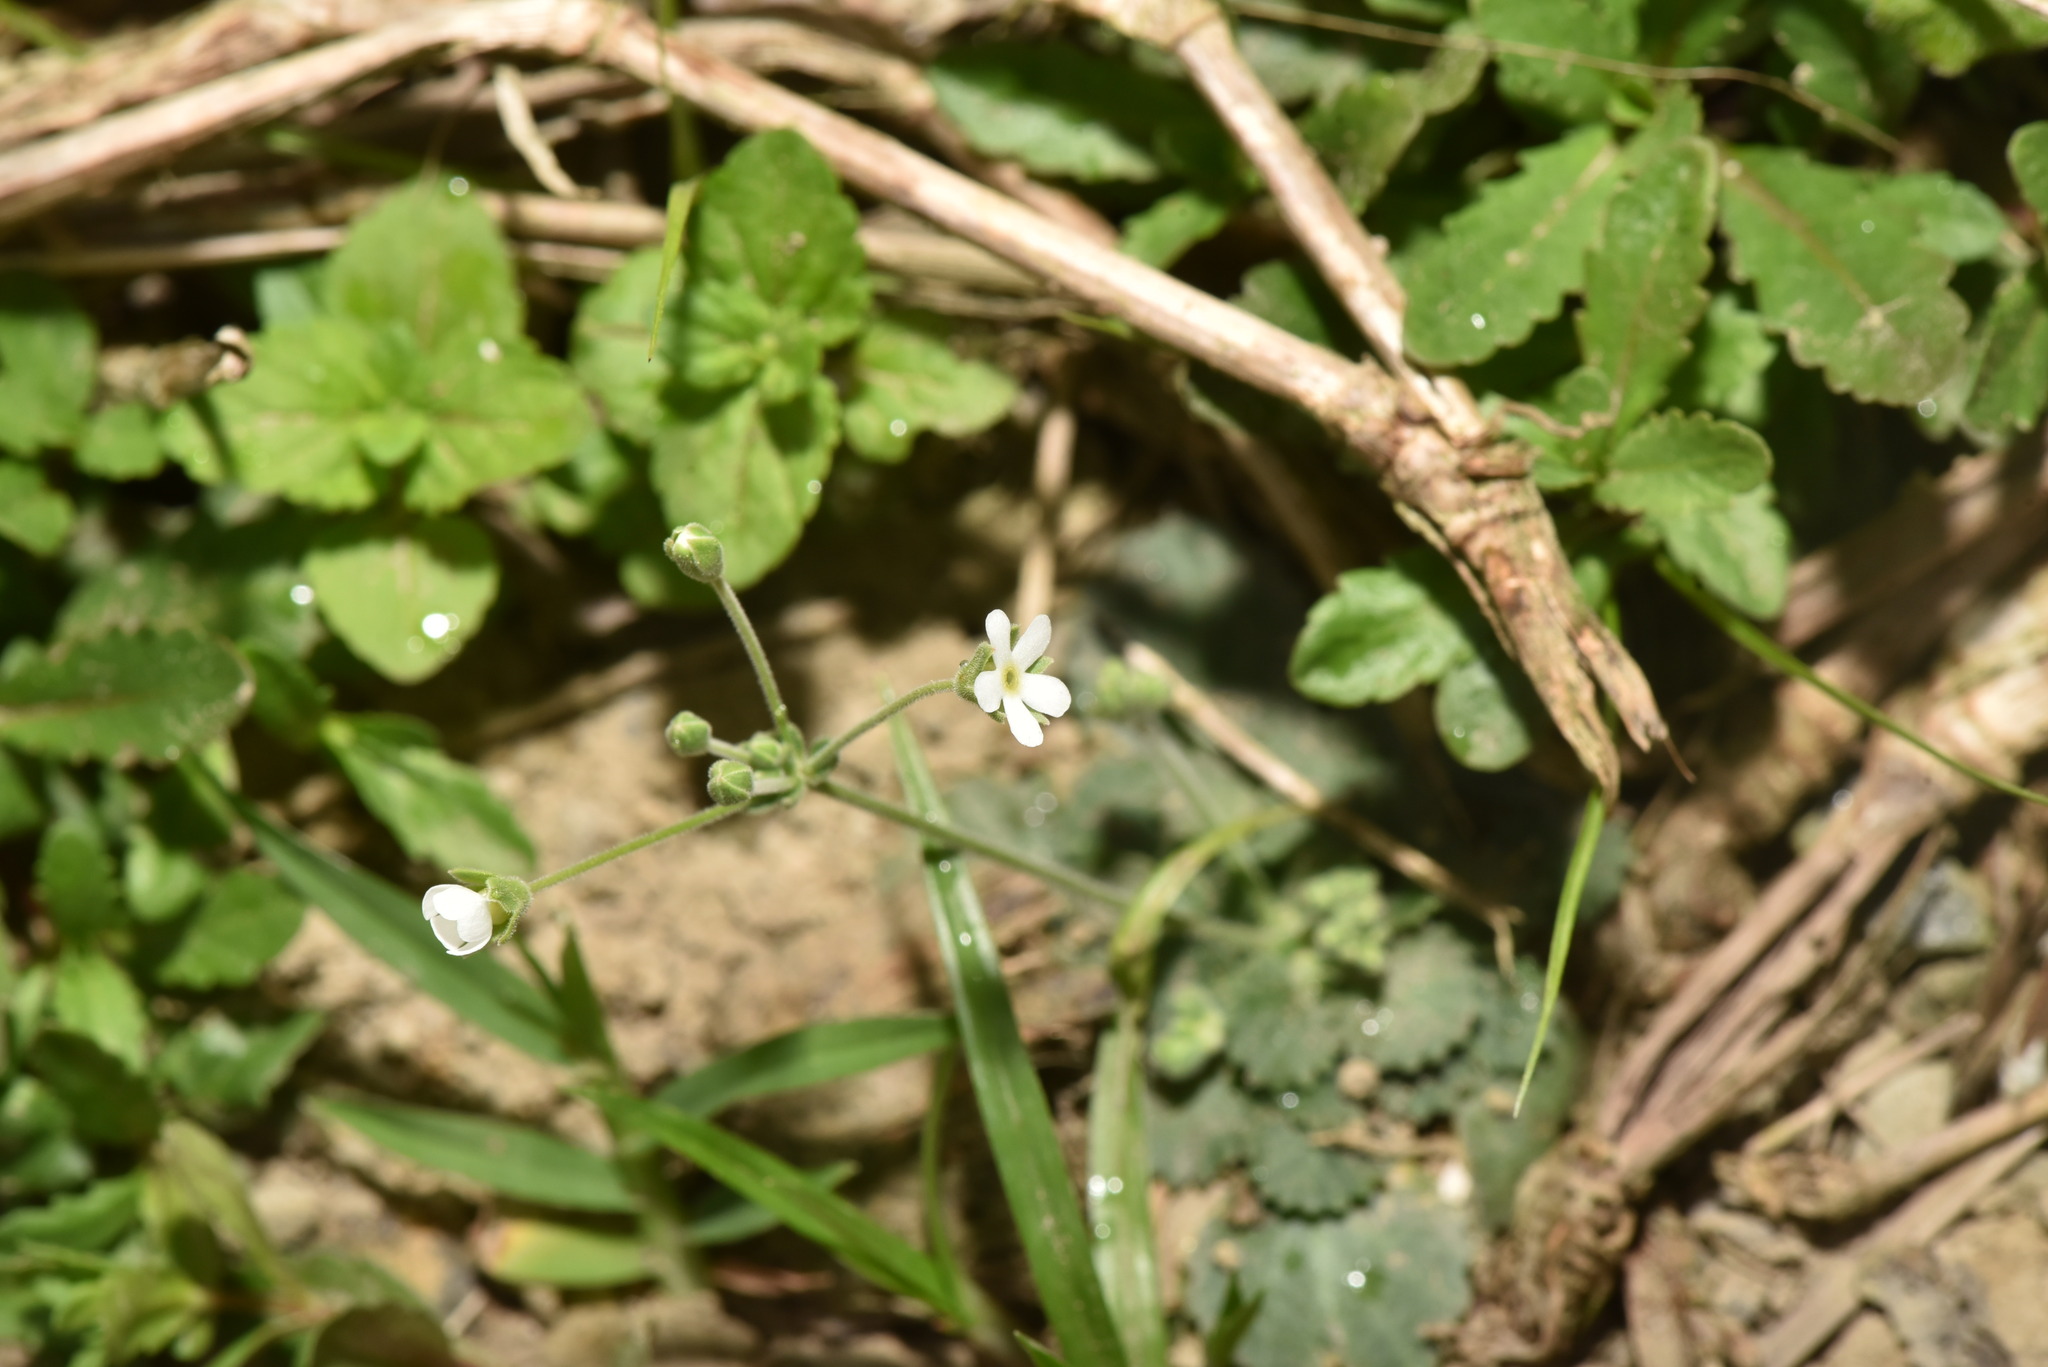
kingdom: Plantae
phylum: Tracheophyta
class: Magnoliopsida
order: Ericales
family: Primulaceae
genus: Androsace
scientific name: Androsace umbellata
